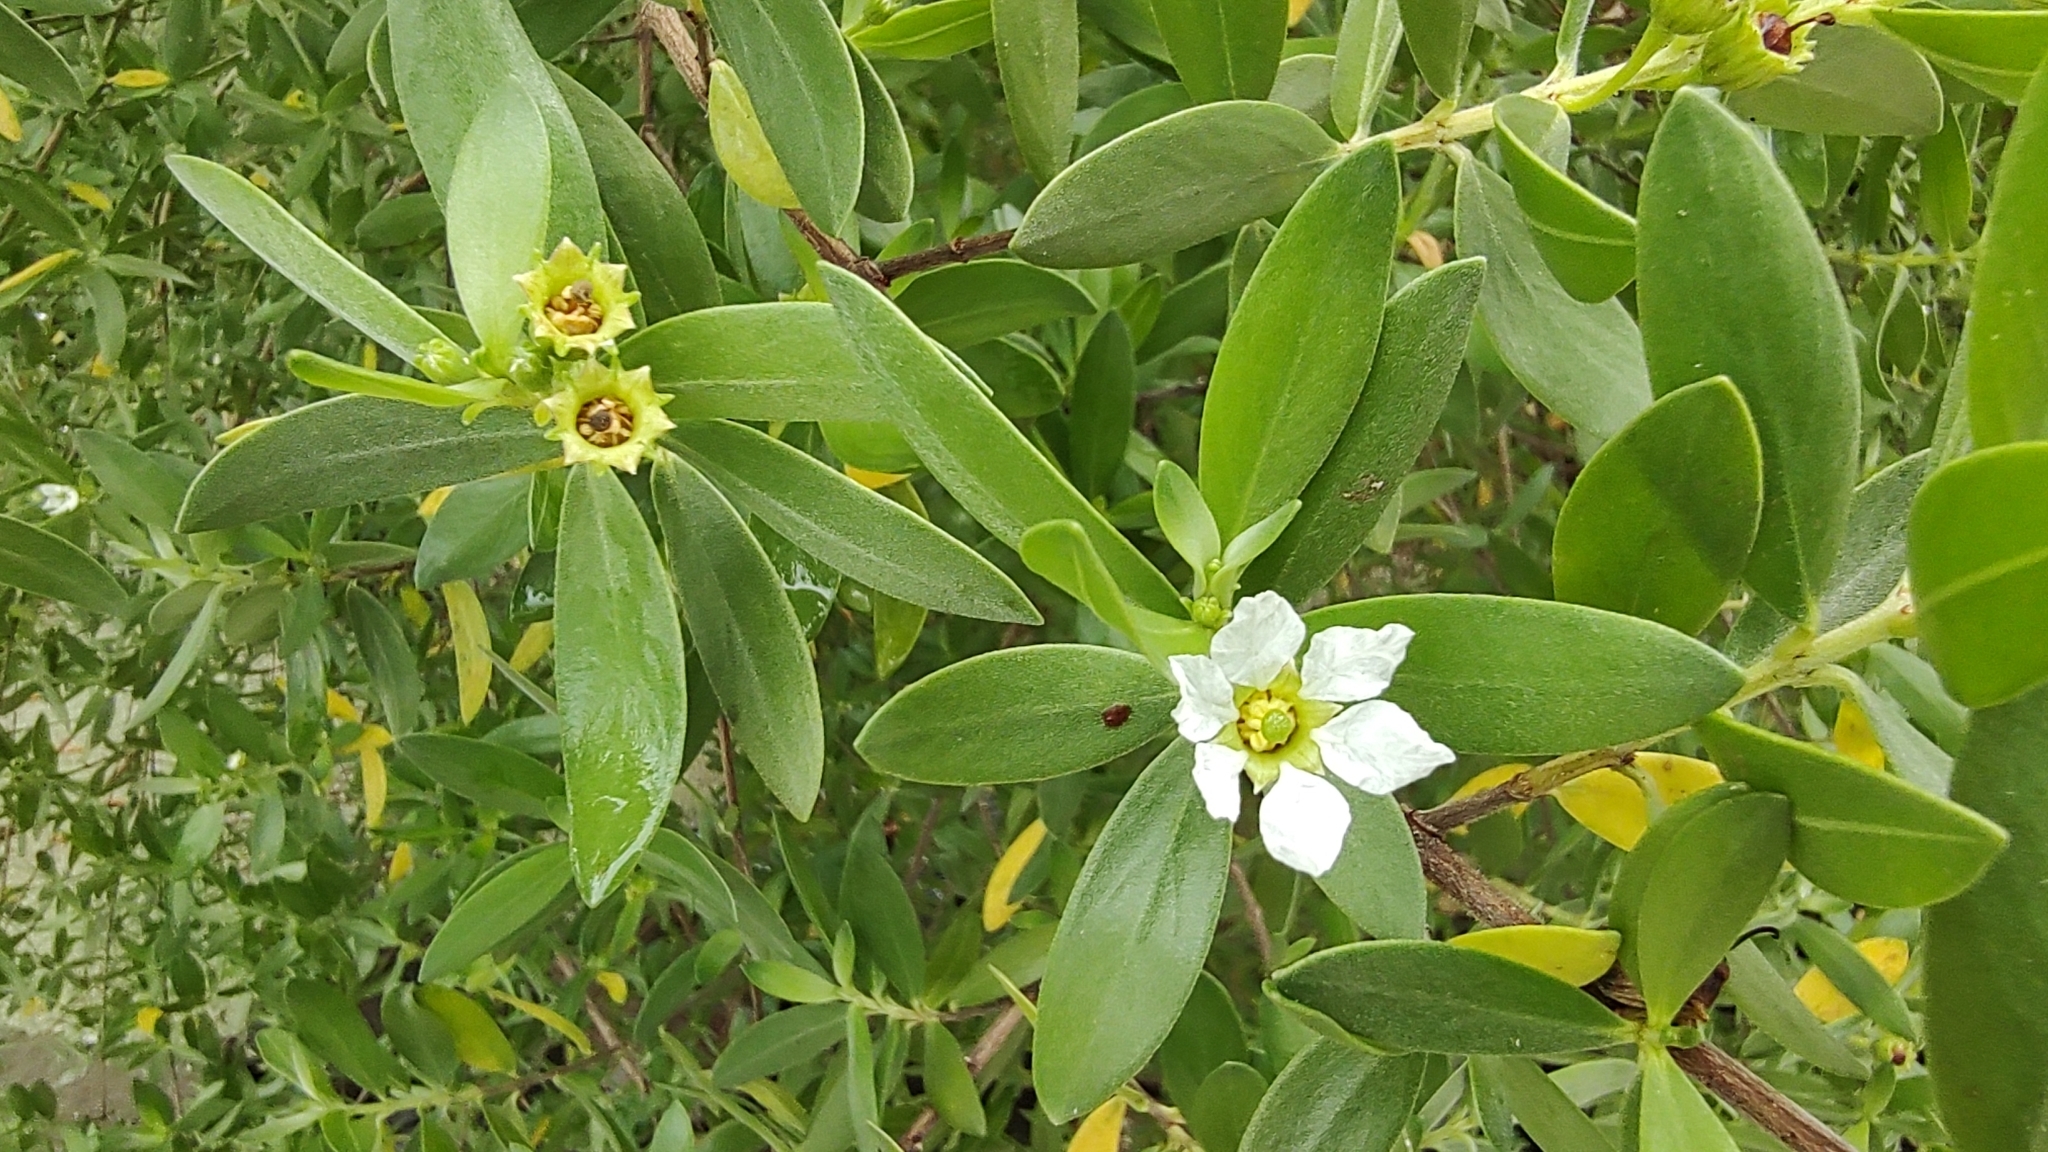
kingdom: Plantae
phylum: Tracheophyta
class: Magnoliopsida
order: Myrtales
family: Lythraceae
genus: Pemphis
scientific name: Pemphis acidula
